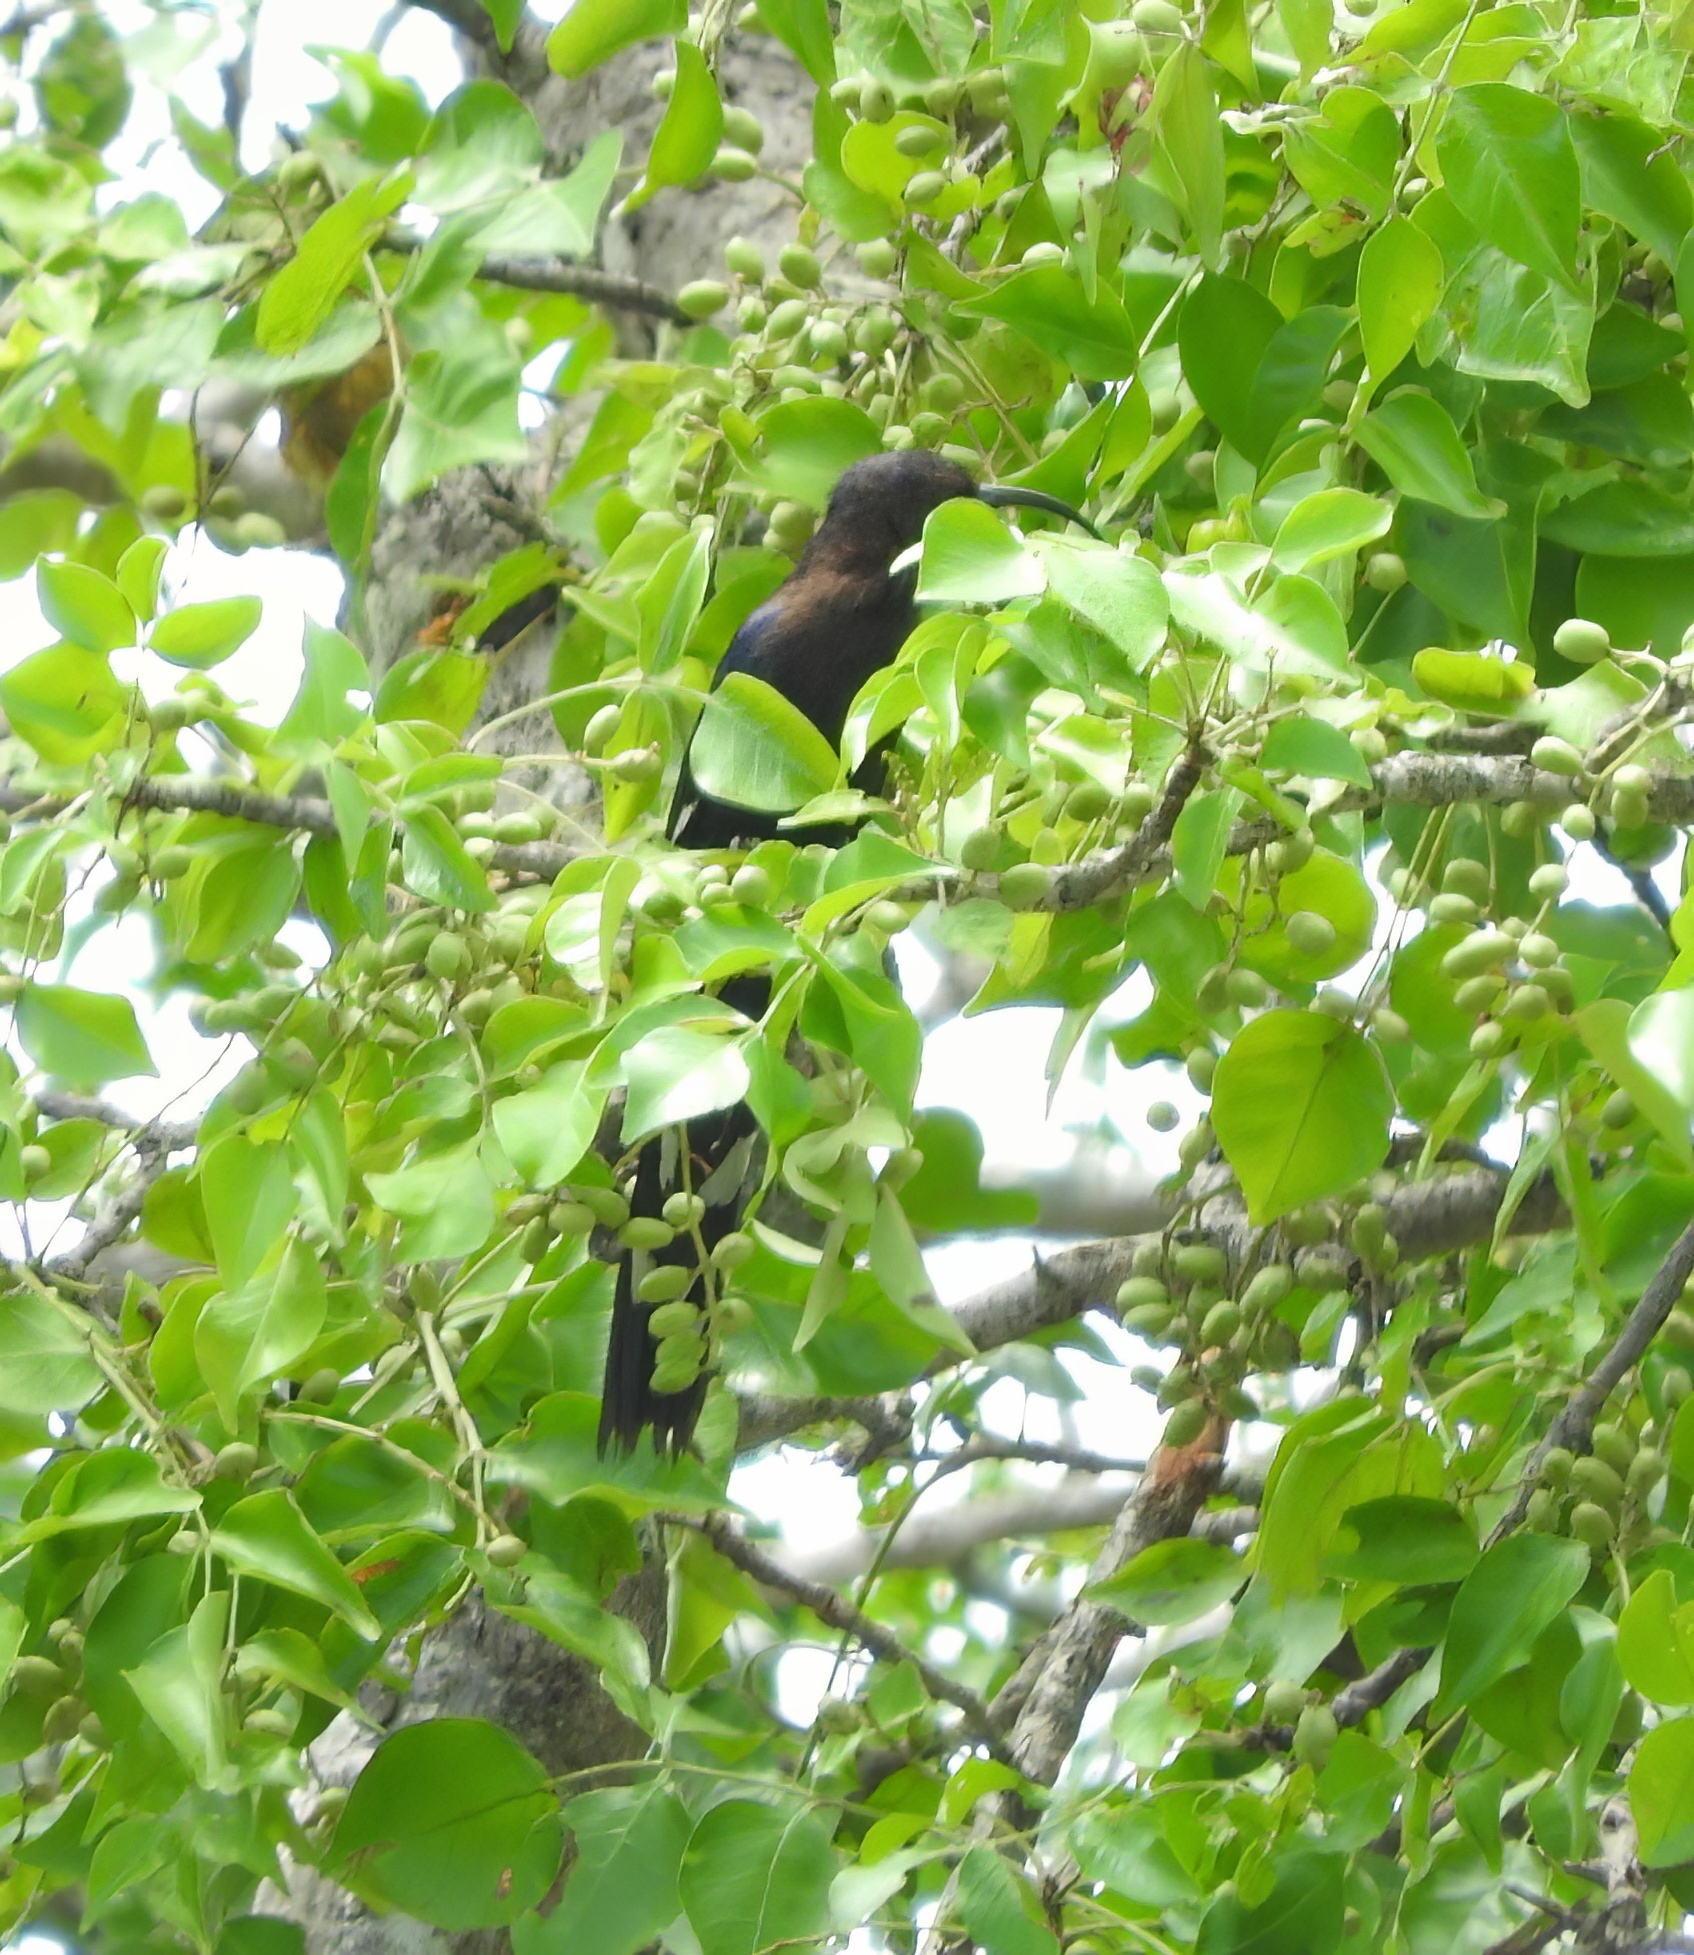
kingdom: Animalia
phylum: Chordata
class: Aves
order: Bucerotiformes
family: Phoeniculidae
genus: Rhinopomastus
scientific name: Rhinopomastus cyanomelas
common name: Common scimitarbill
